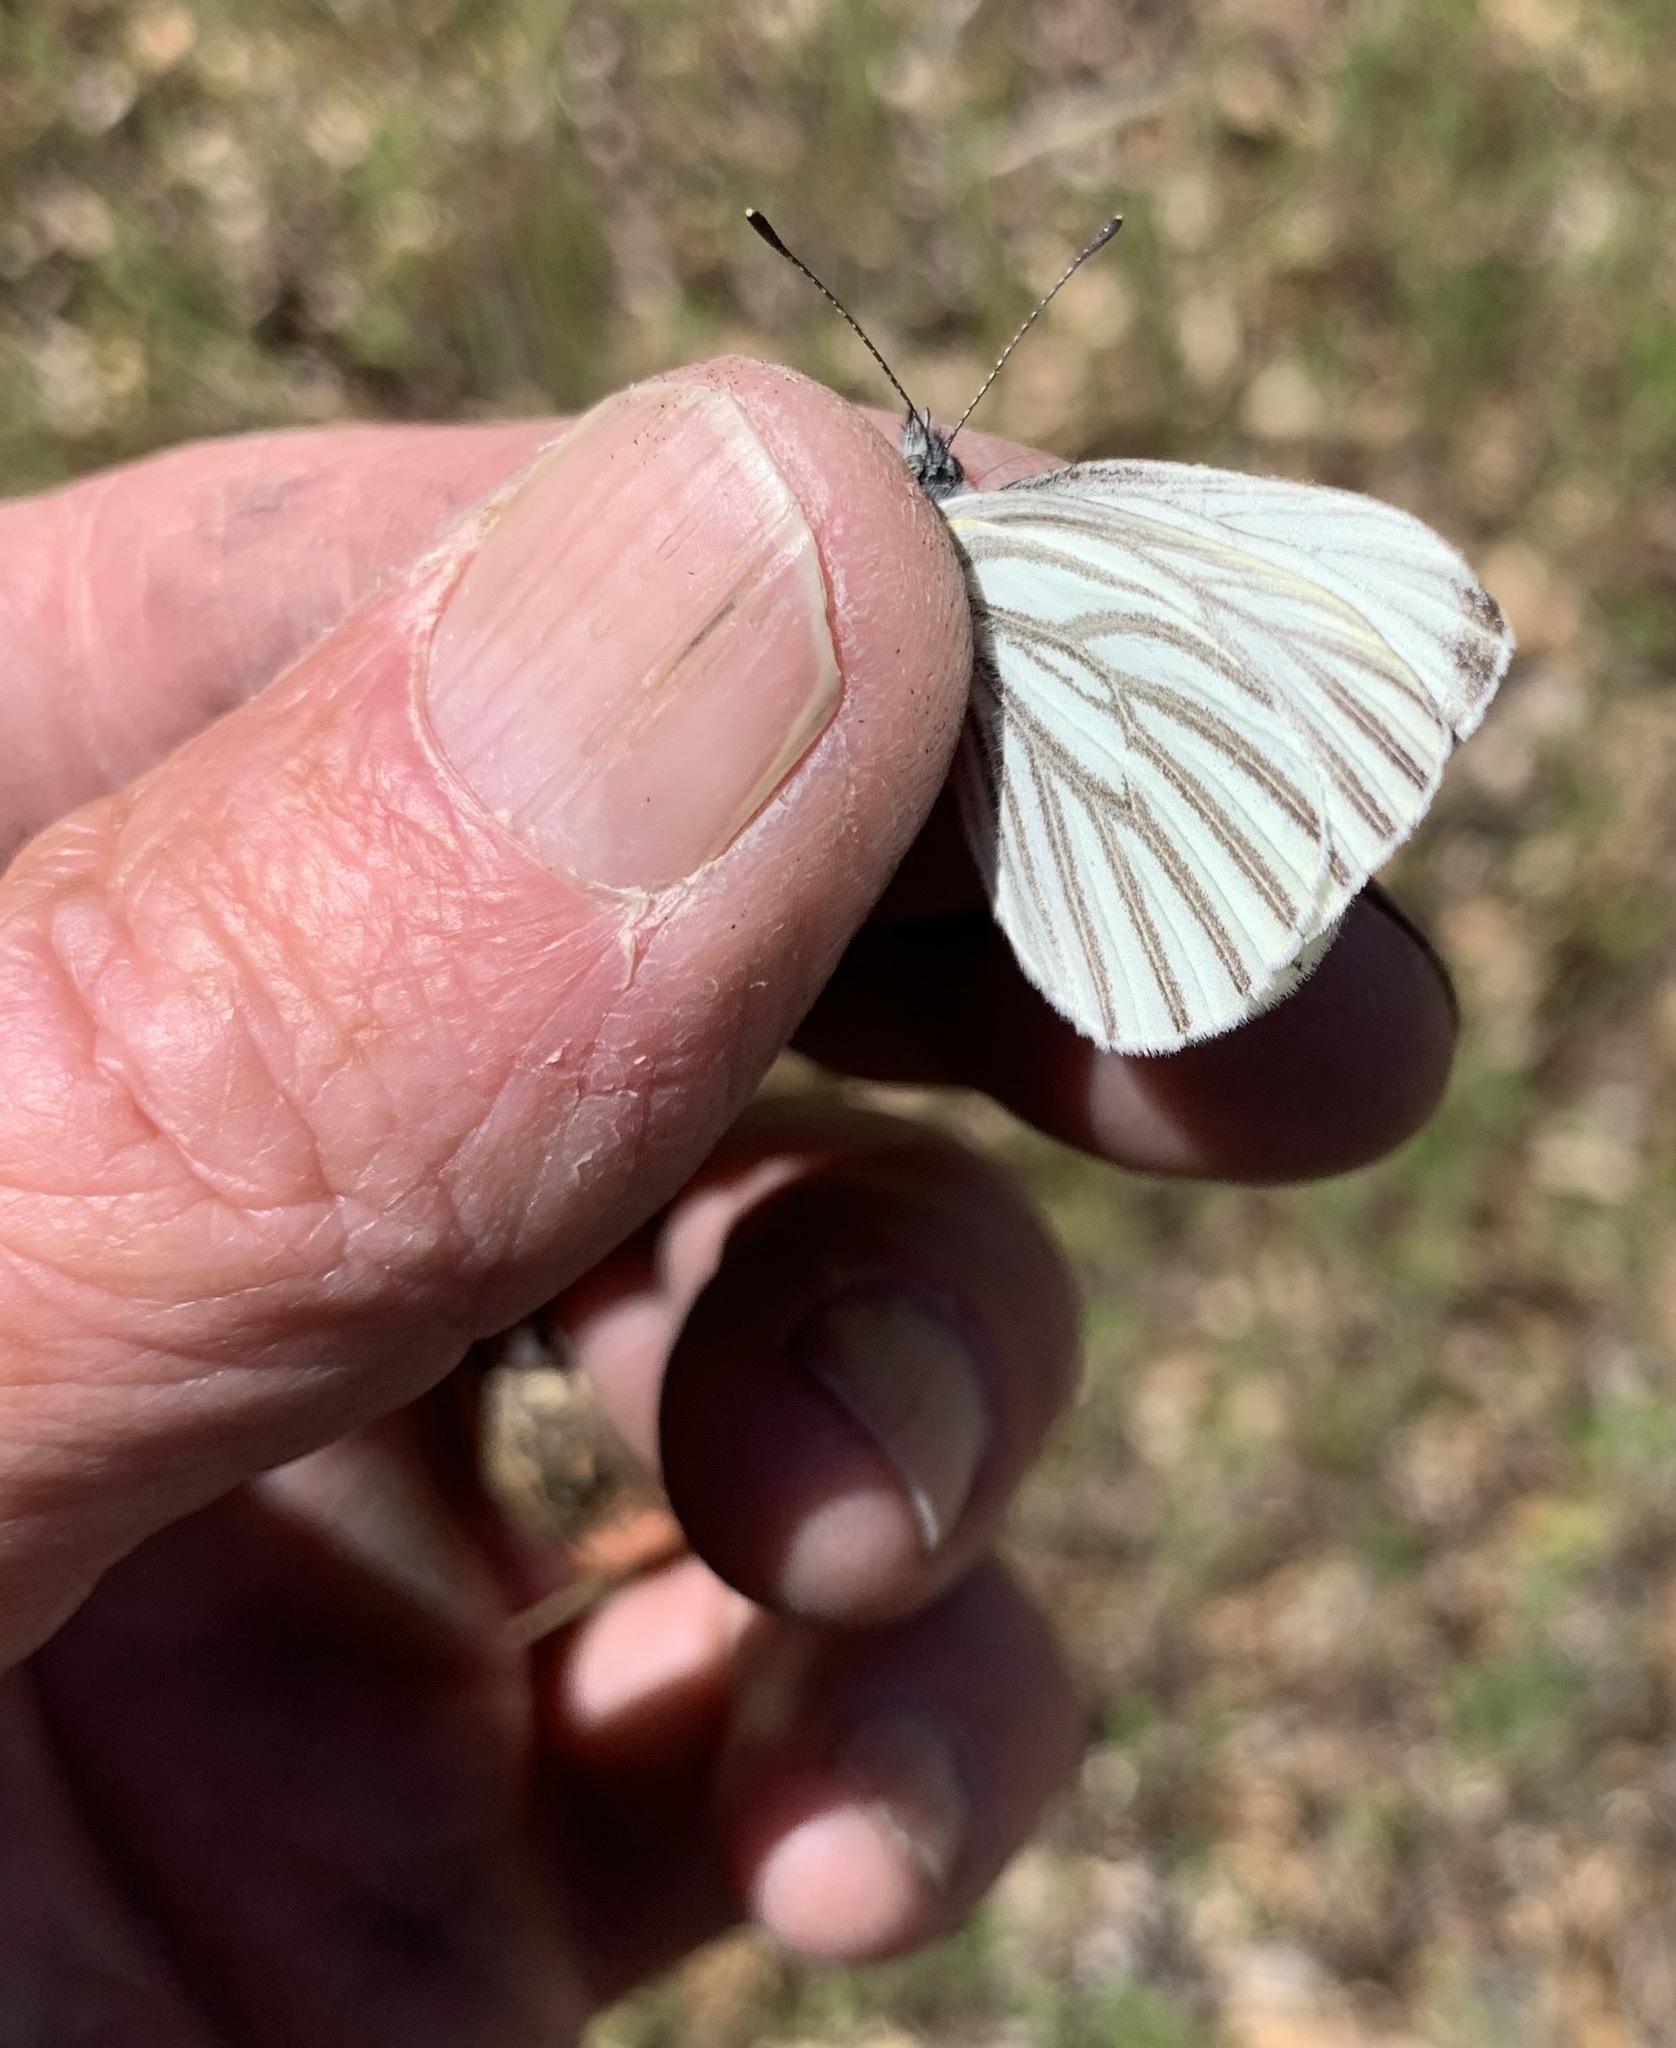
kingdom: Animalia
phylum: Arthropoda
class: Insecta
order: Lepidoptera
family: Pieridae
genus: Pieris
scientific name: Pieris marginalis
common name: Margined white
